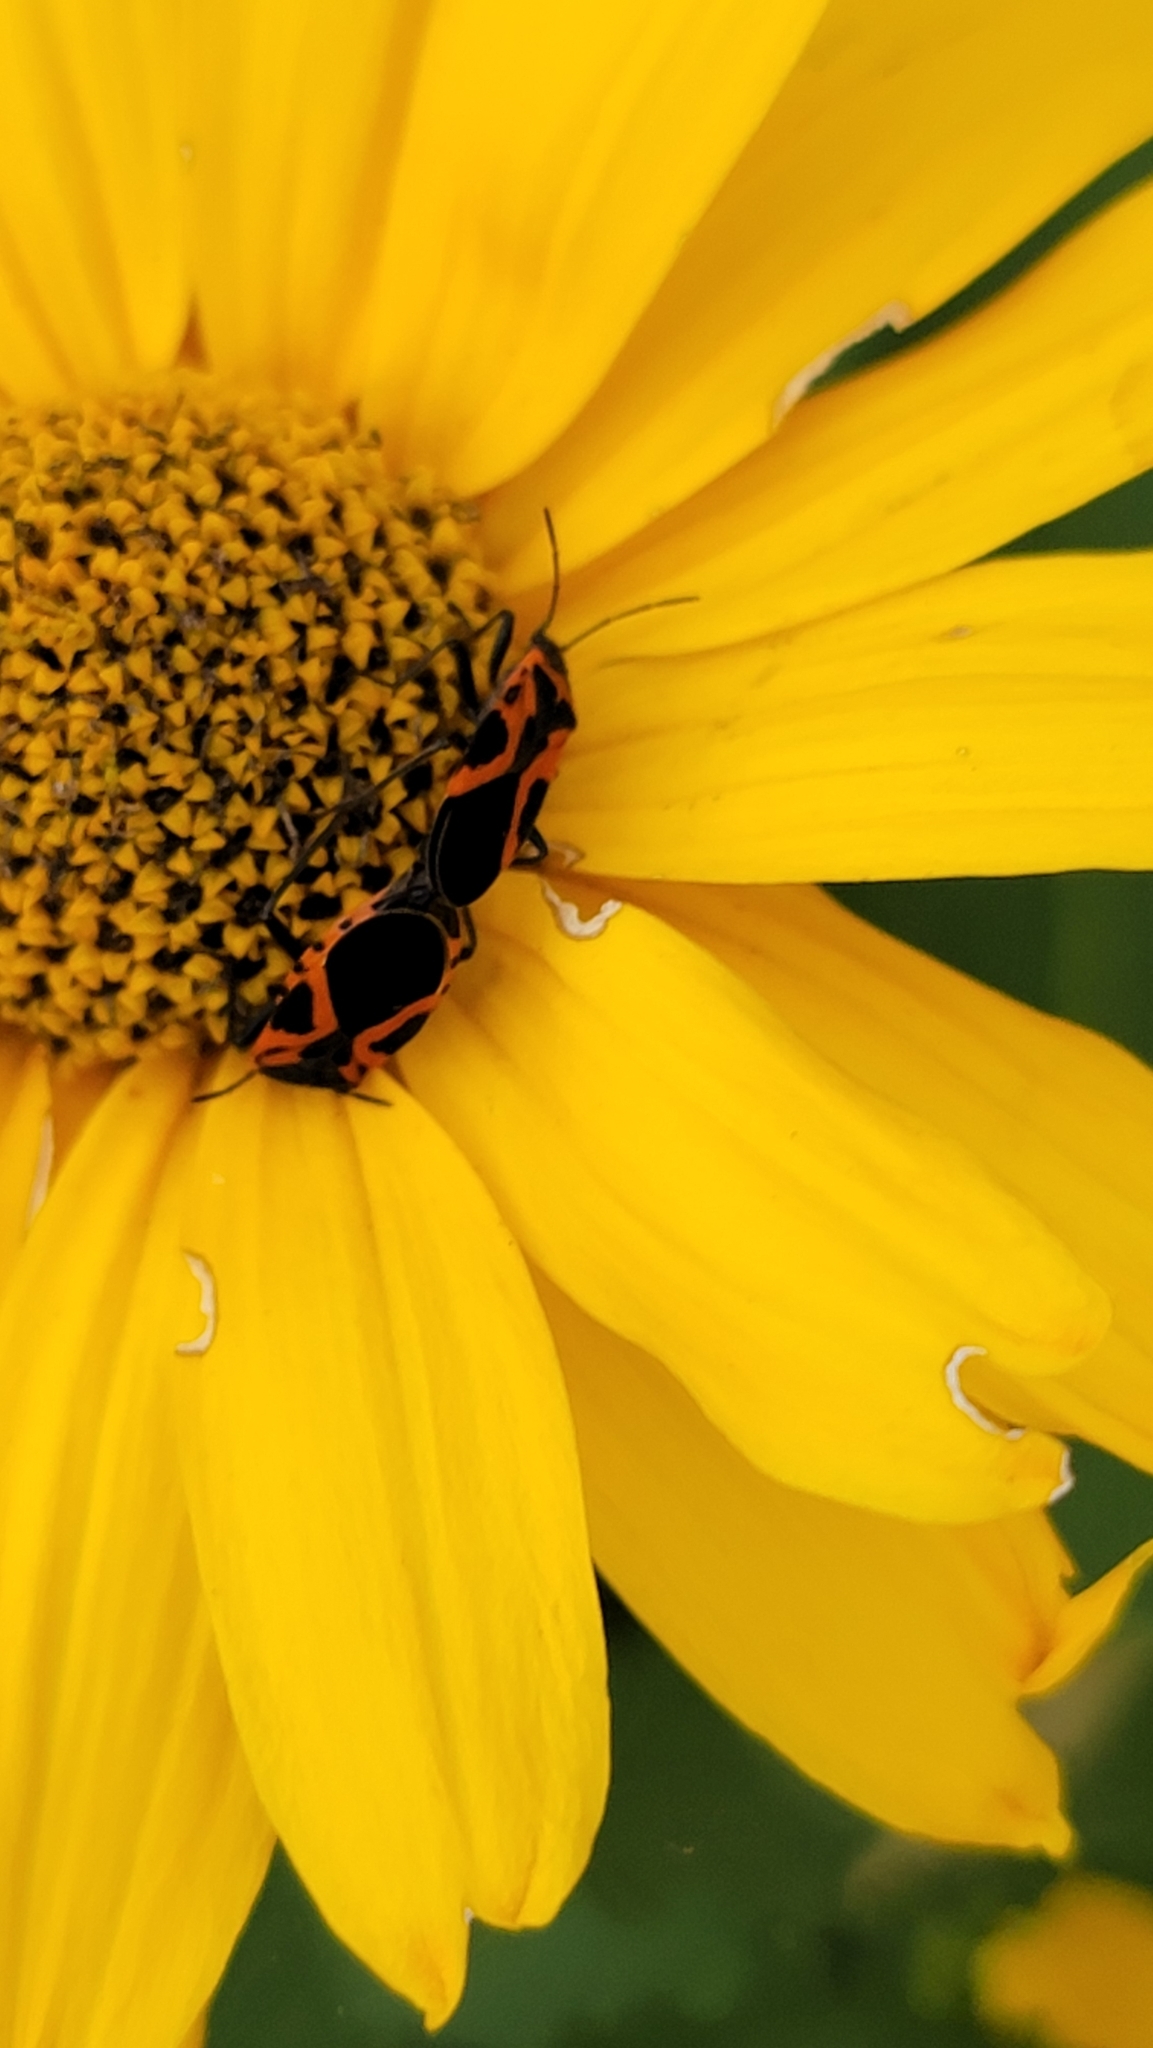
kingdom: Animalia
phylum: Arthropoda
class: Insecta
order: Hemiptera
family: Lygaeidae
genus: Lygaeus
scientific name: Lygaeus turcicus
